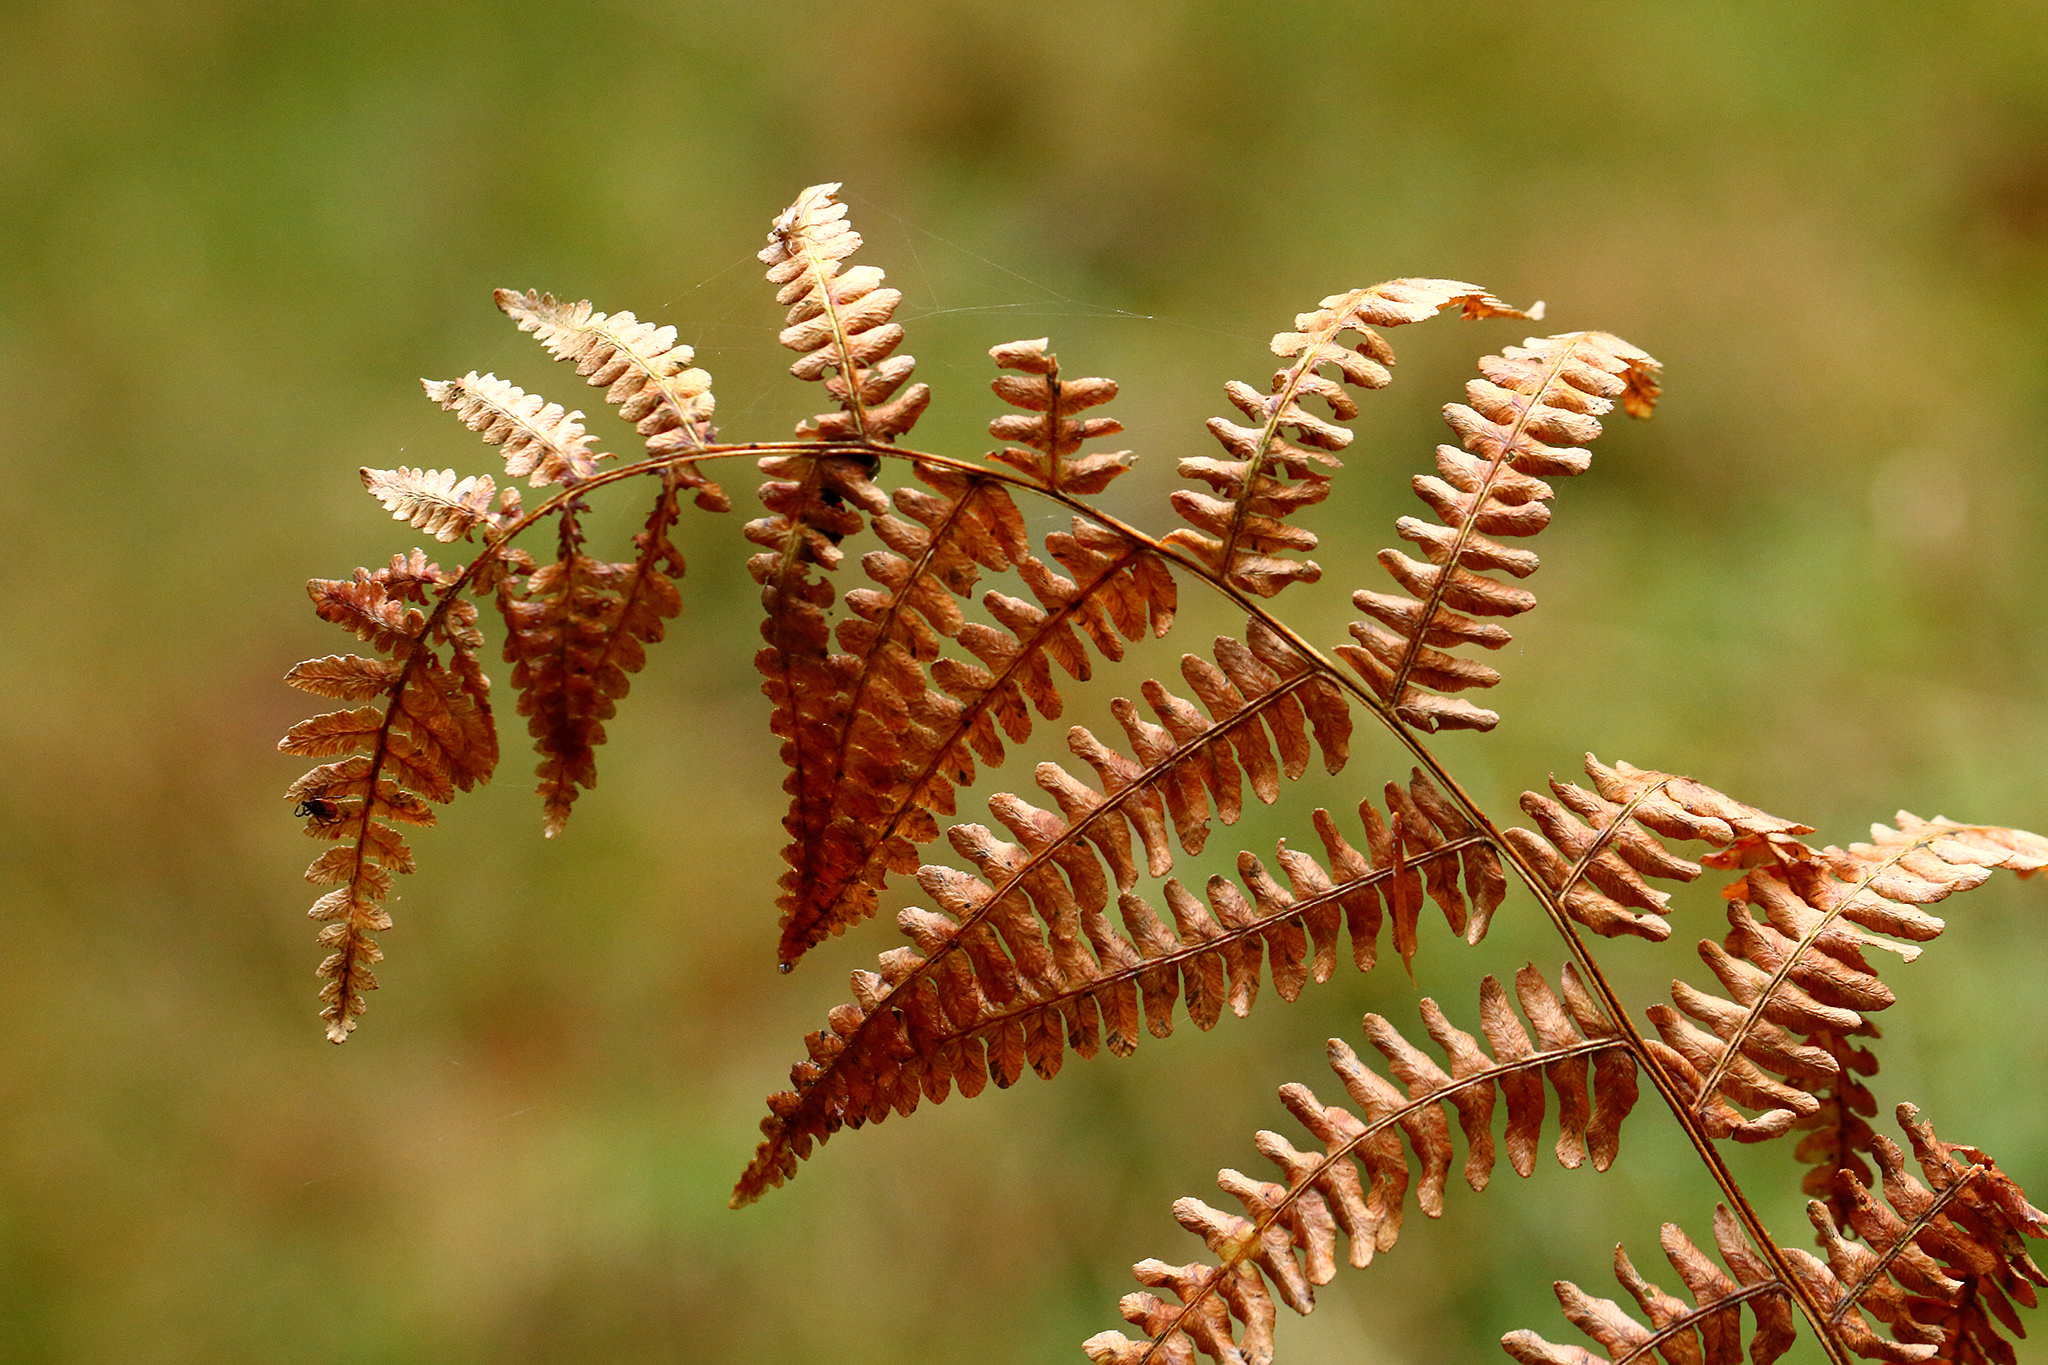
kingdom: Plantae
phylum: Tracheophyta
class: Polypodiopsida
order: Polypodiales
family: Thelypteridaceae
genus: Thelypteris
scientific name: Thelypteris palustris
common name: Marsh fern
